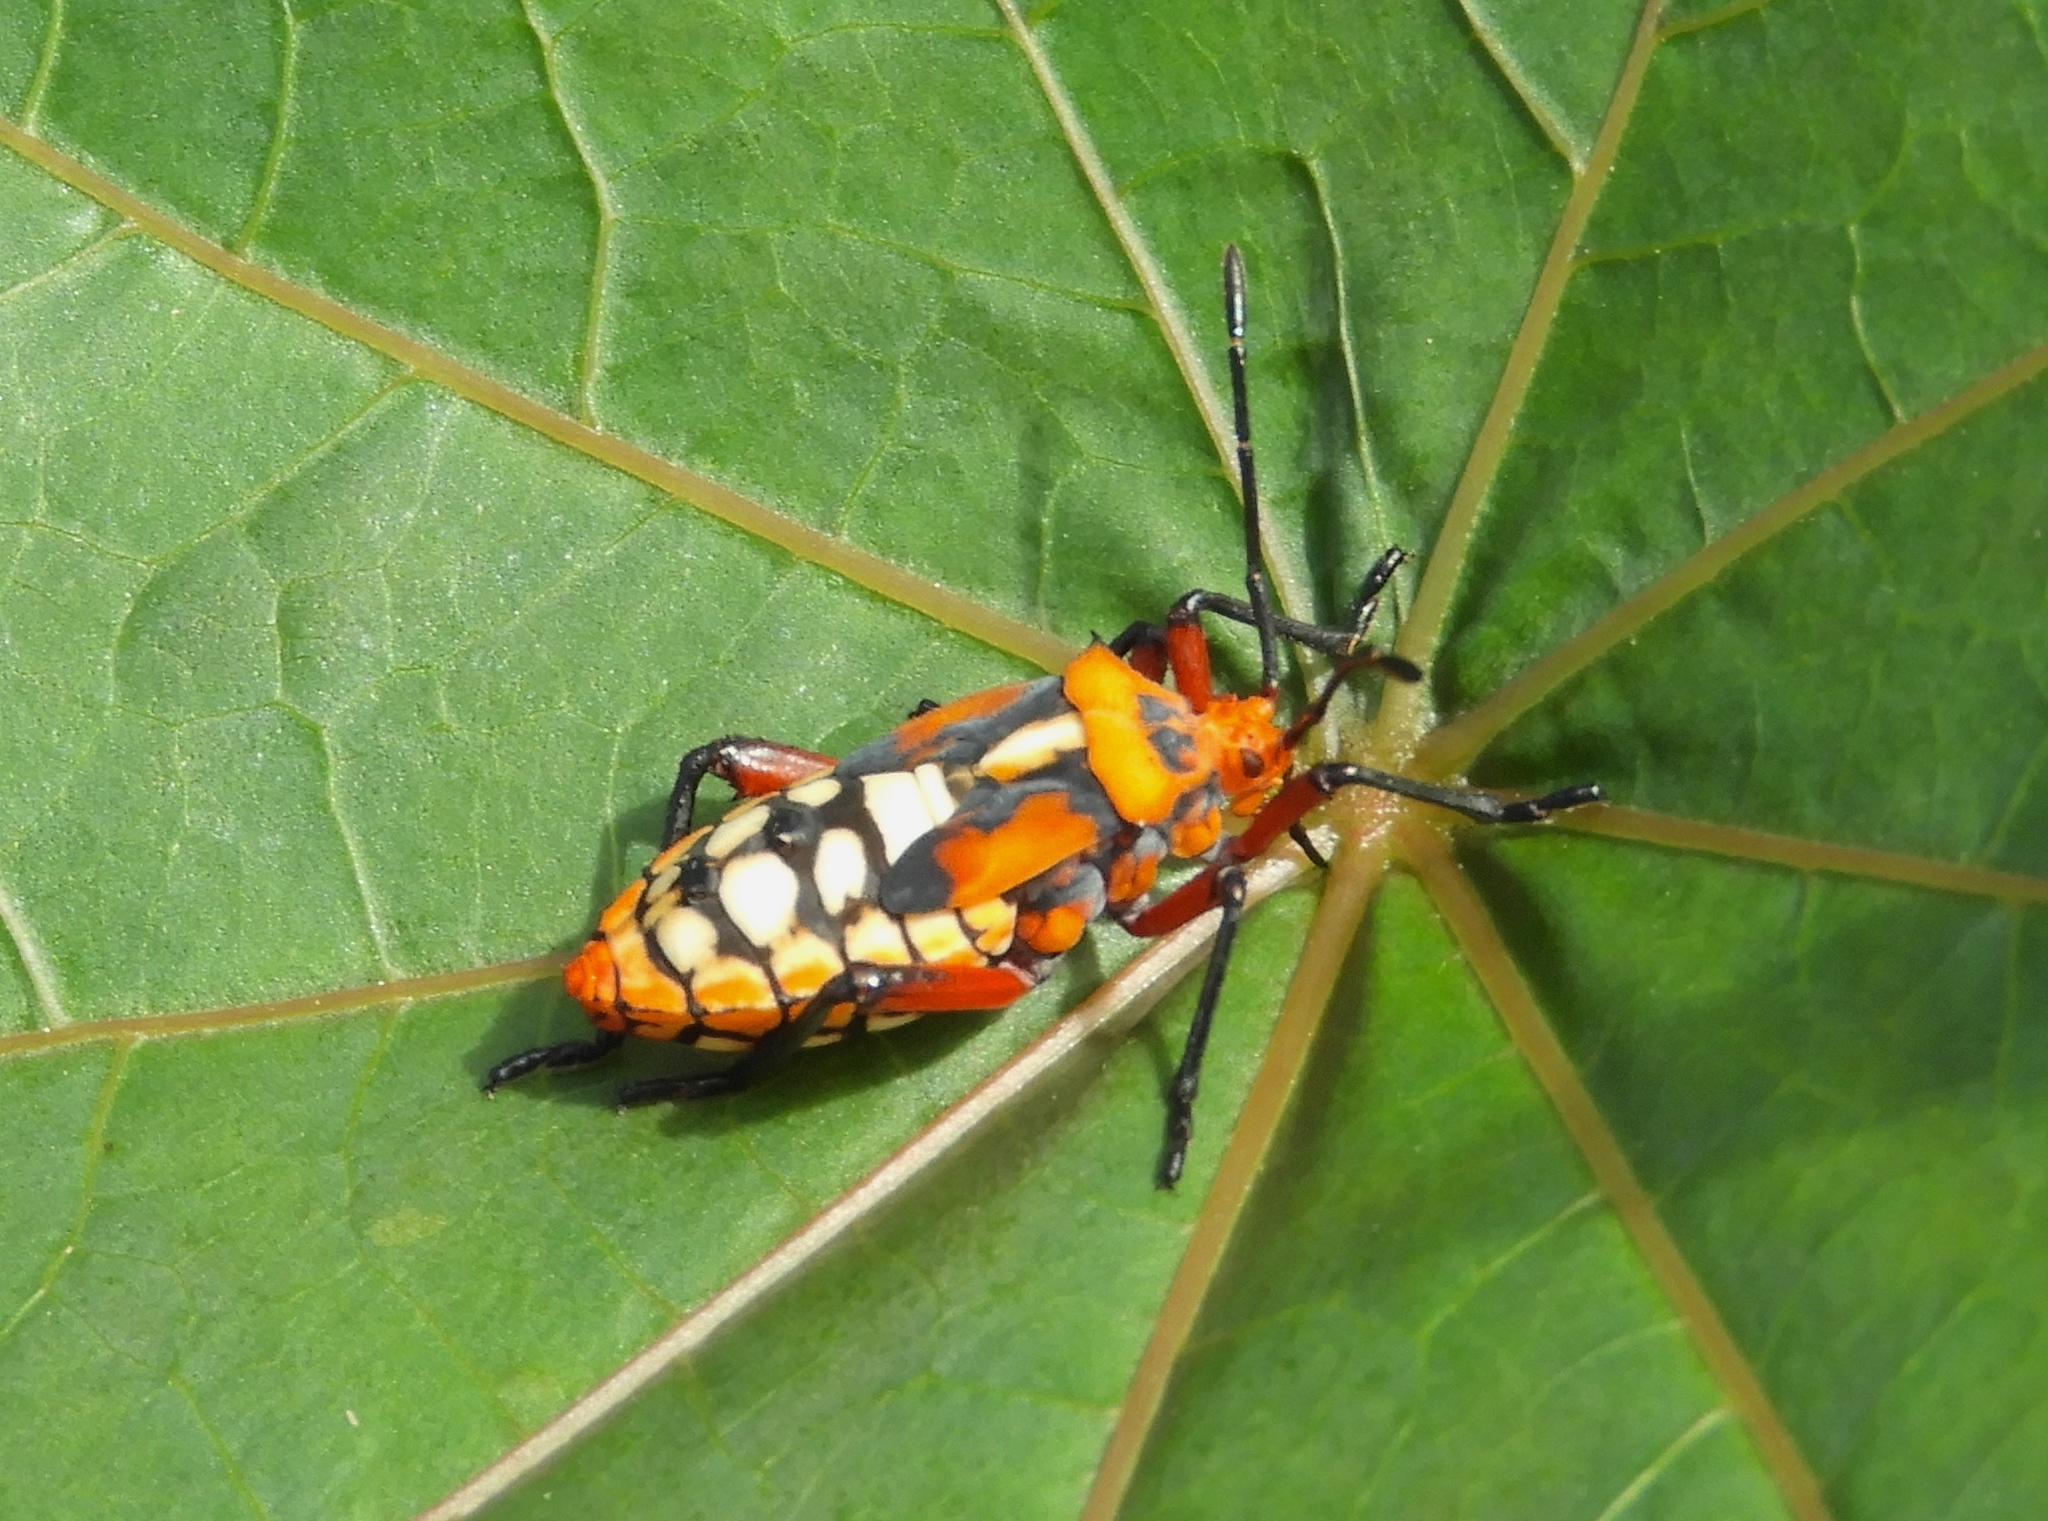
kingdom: Animalia
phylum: Arthropoda
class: Insecta
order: Hemiptera
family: Coreidae
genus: Sagotylus
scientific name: Sagotylus confluens
